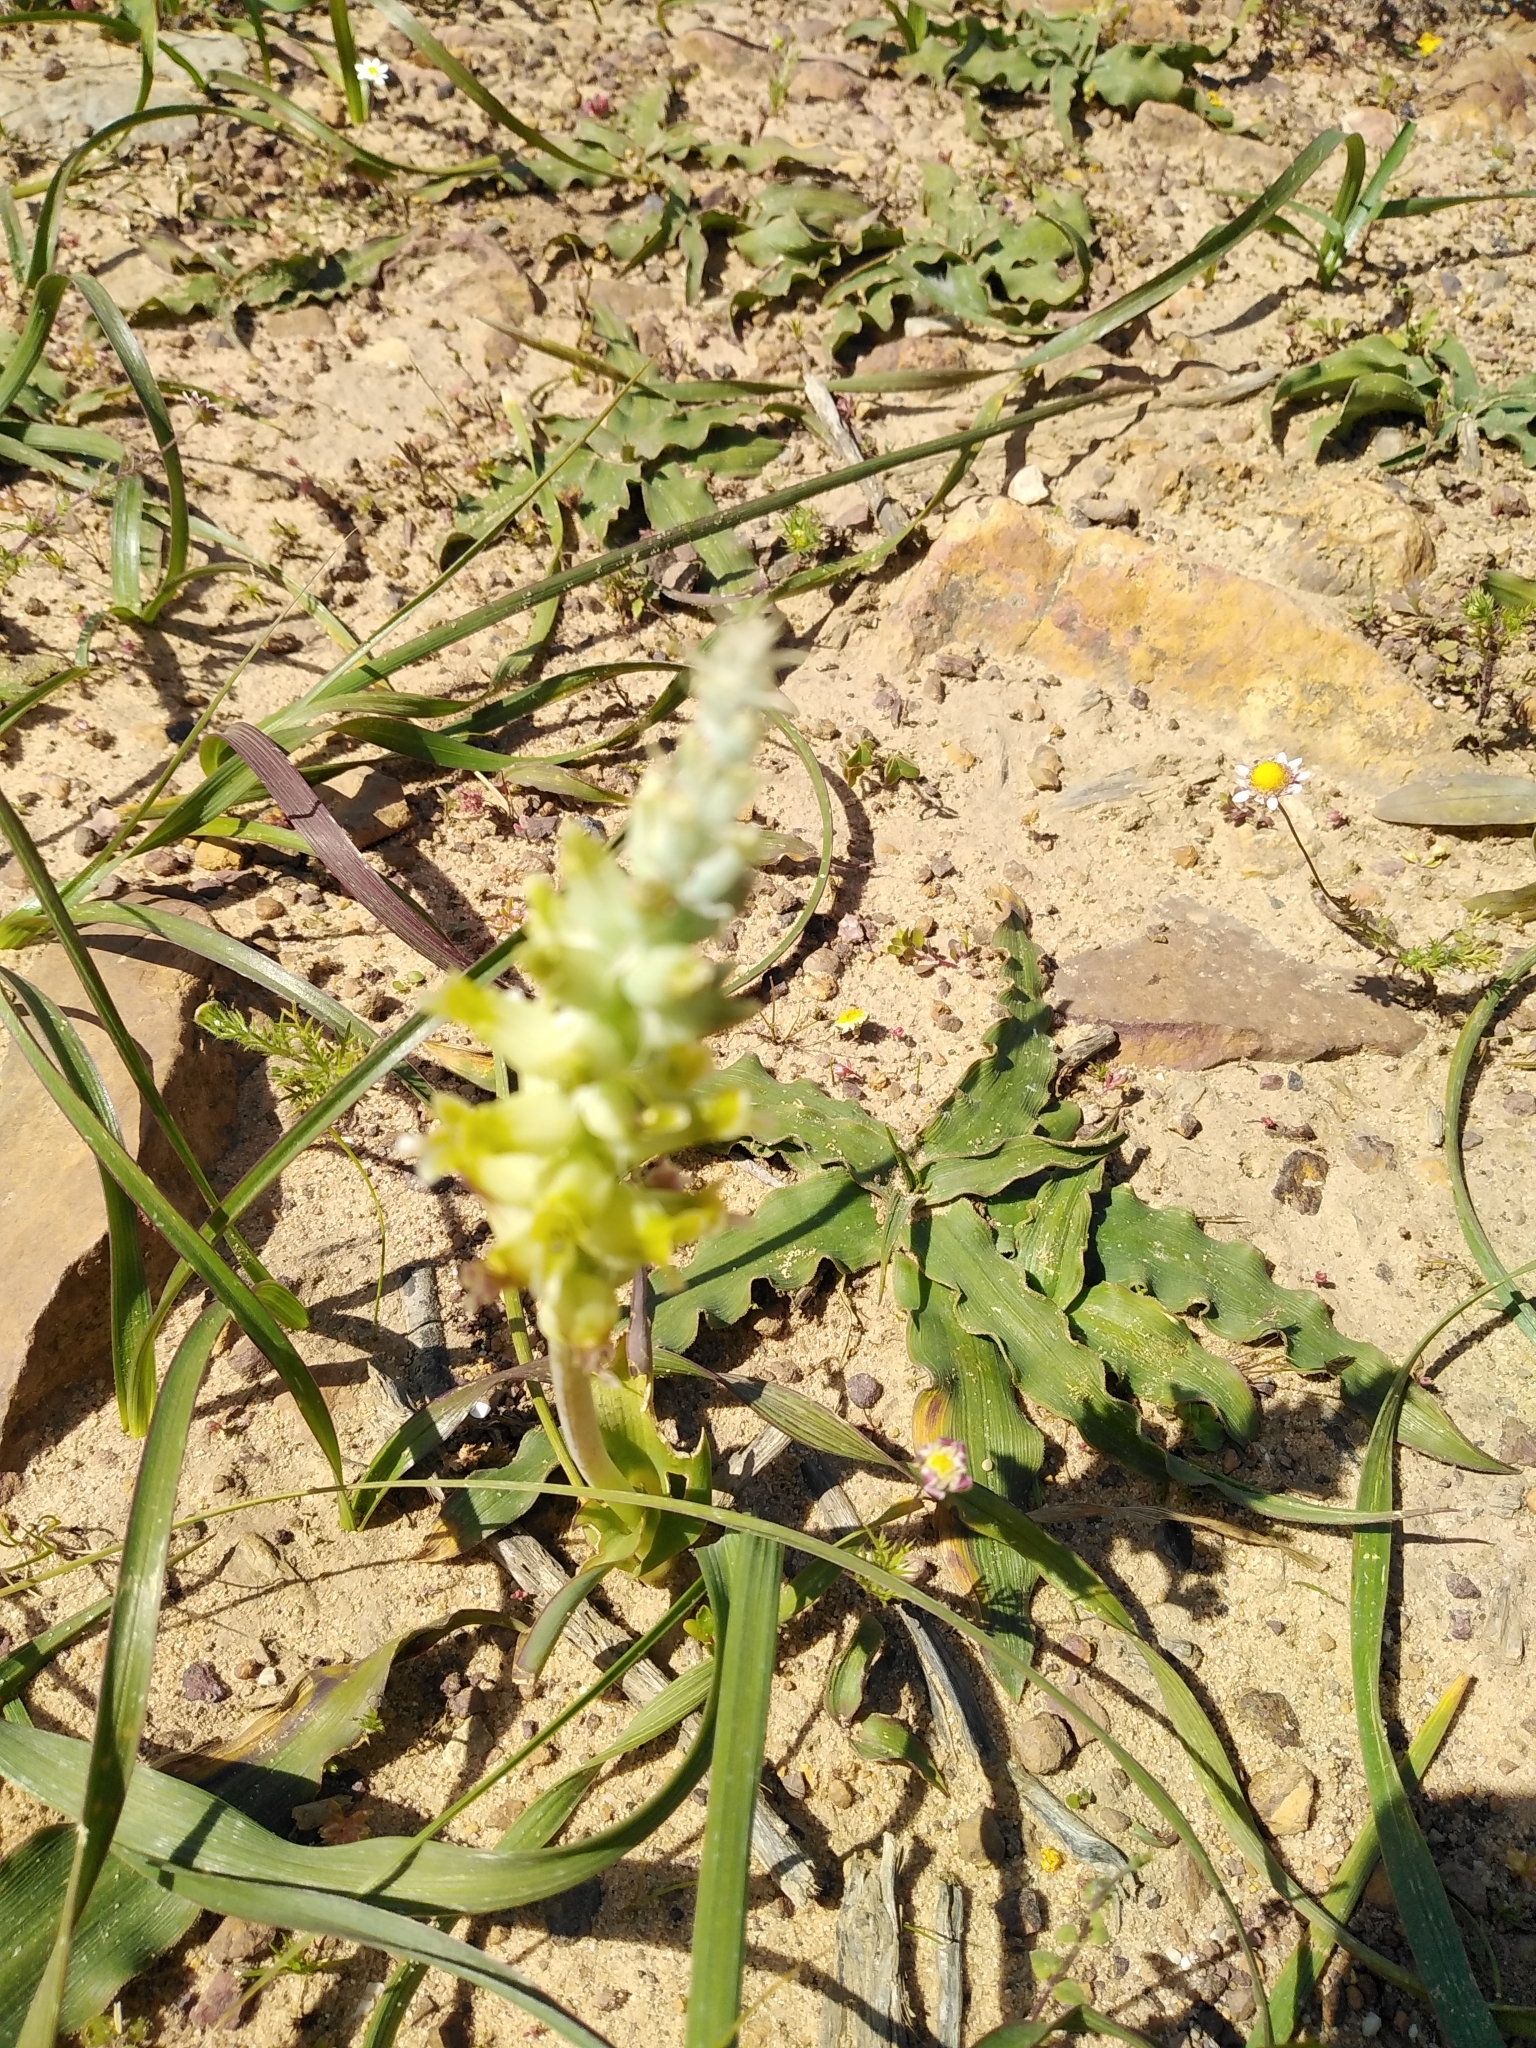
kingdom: Plantae
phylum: Tracheophyta
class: Liliopsida
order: Asparagales
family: Asparagaceae
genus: Lachenalia
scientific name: Lachenalia longibracteata
